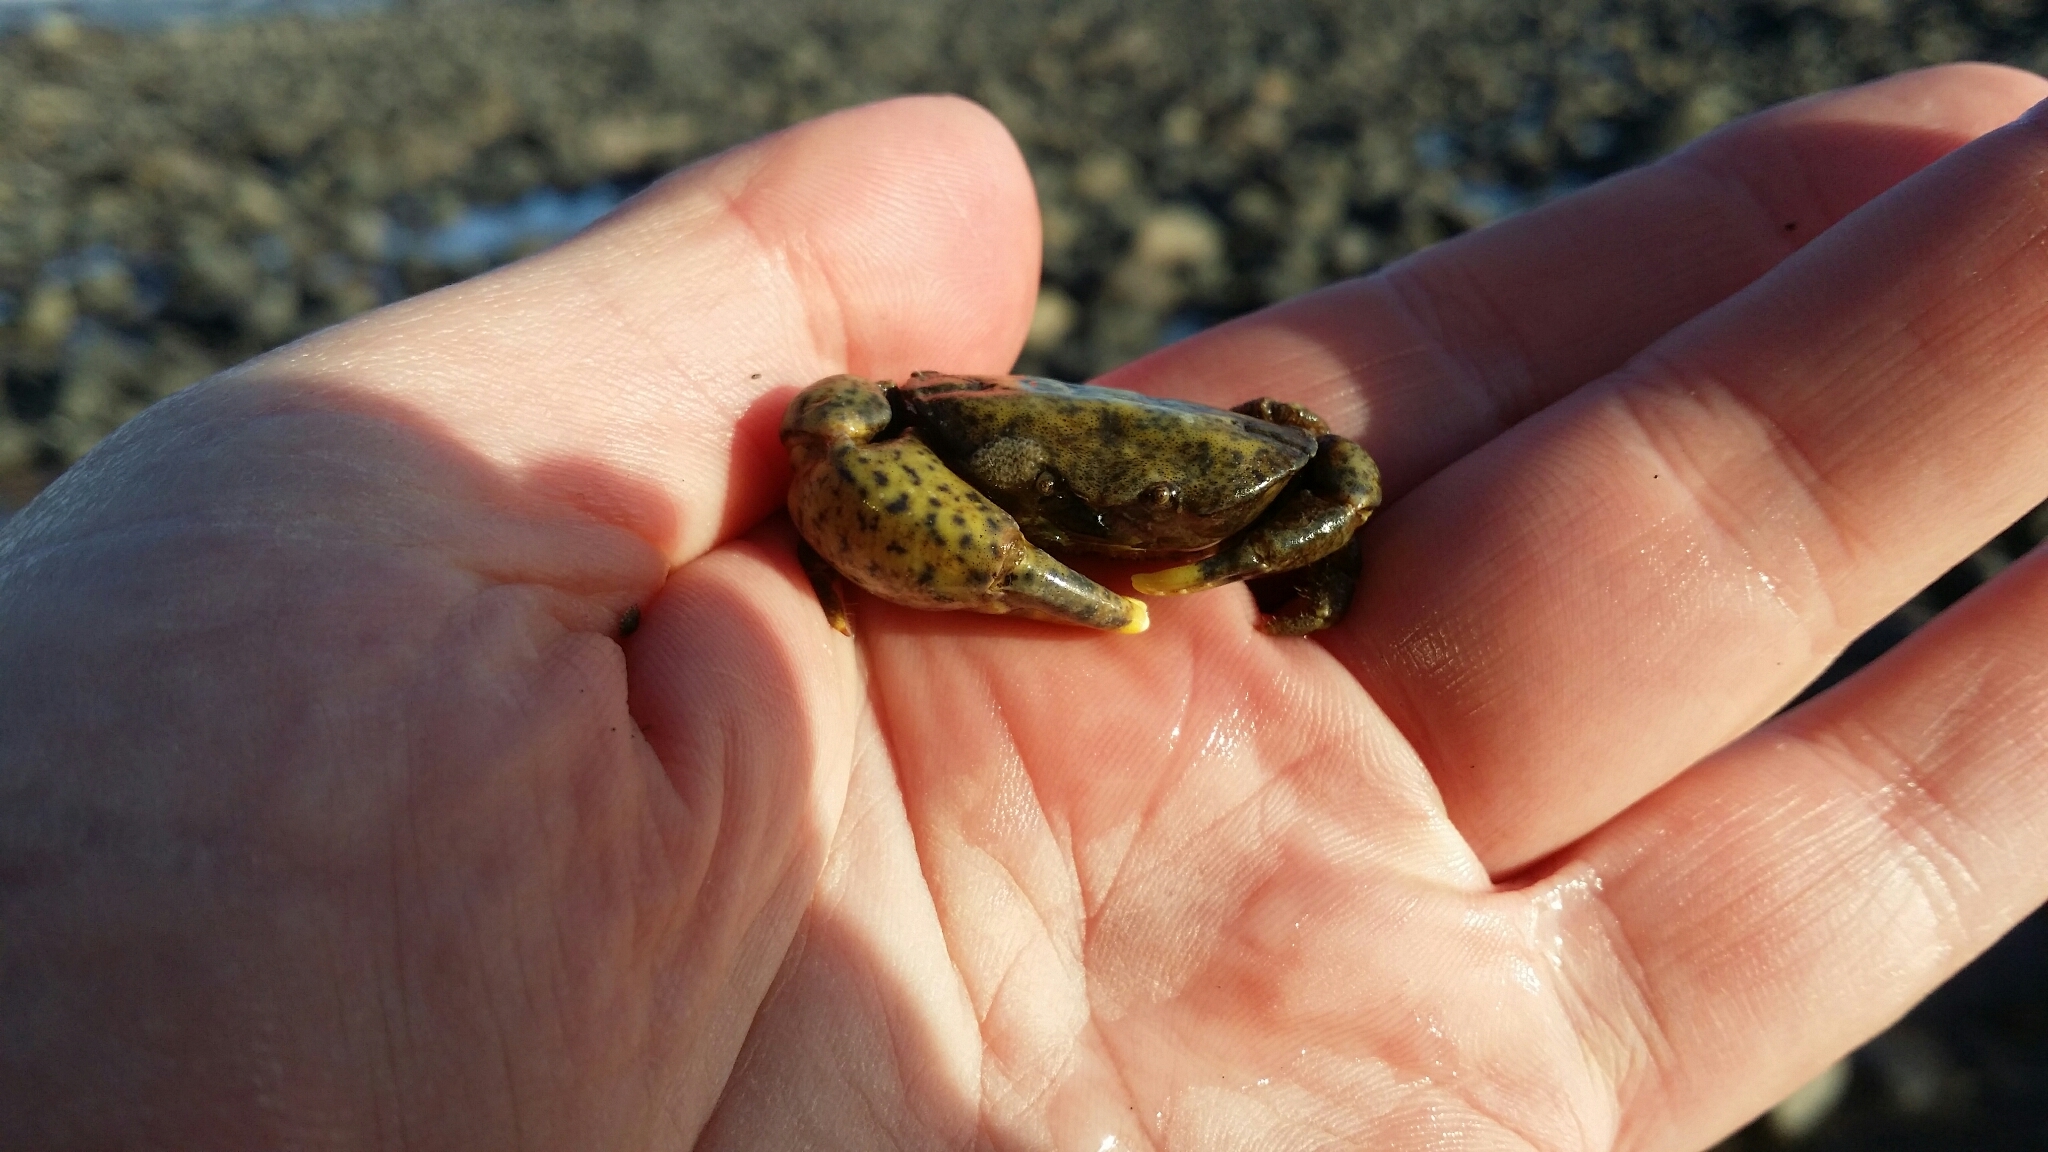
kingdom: Animalia
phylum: Arthropoda
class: Malacostraca
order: Decapoda
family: Heteroziidae
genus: Heterozius
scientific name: Heterozius rotundifrons
